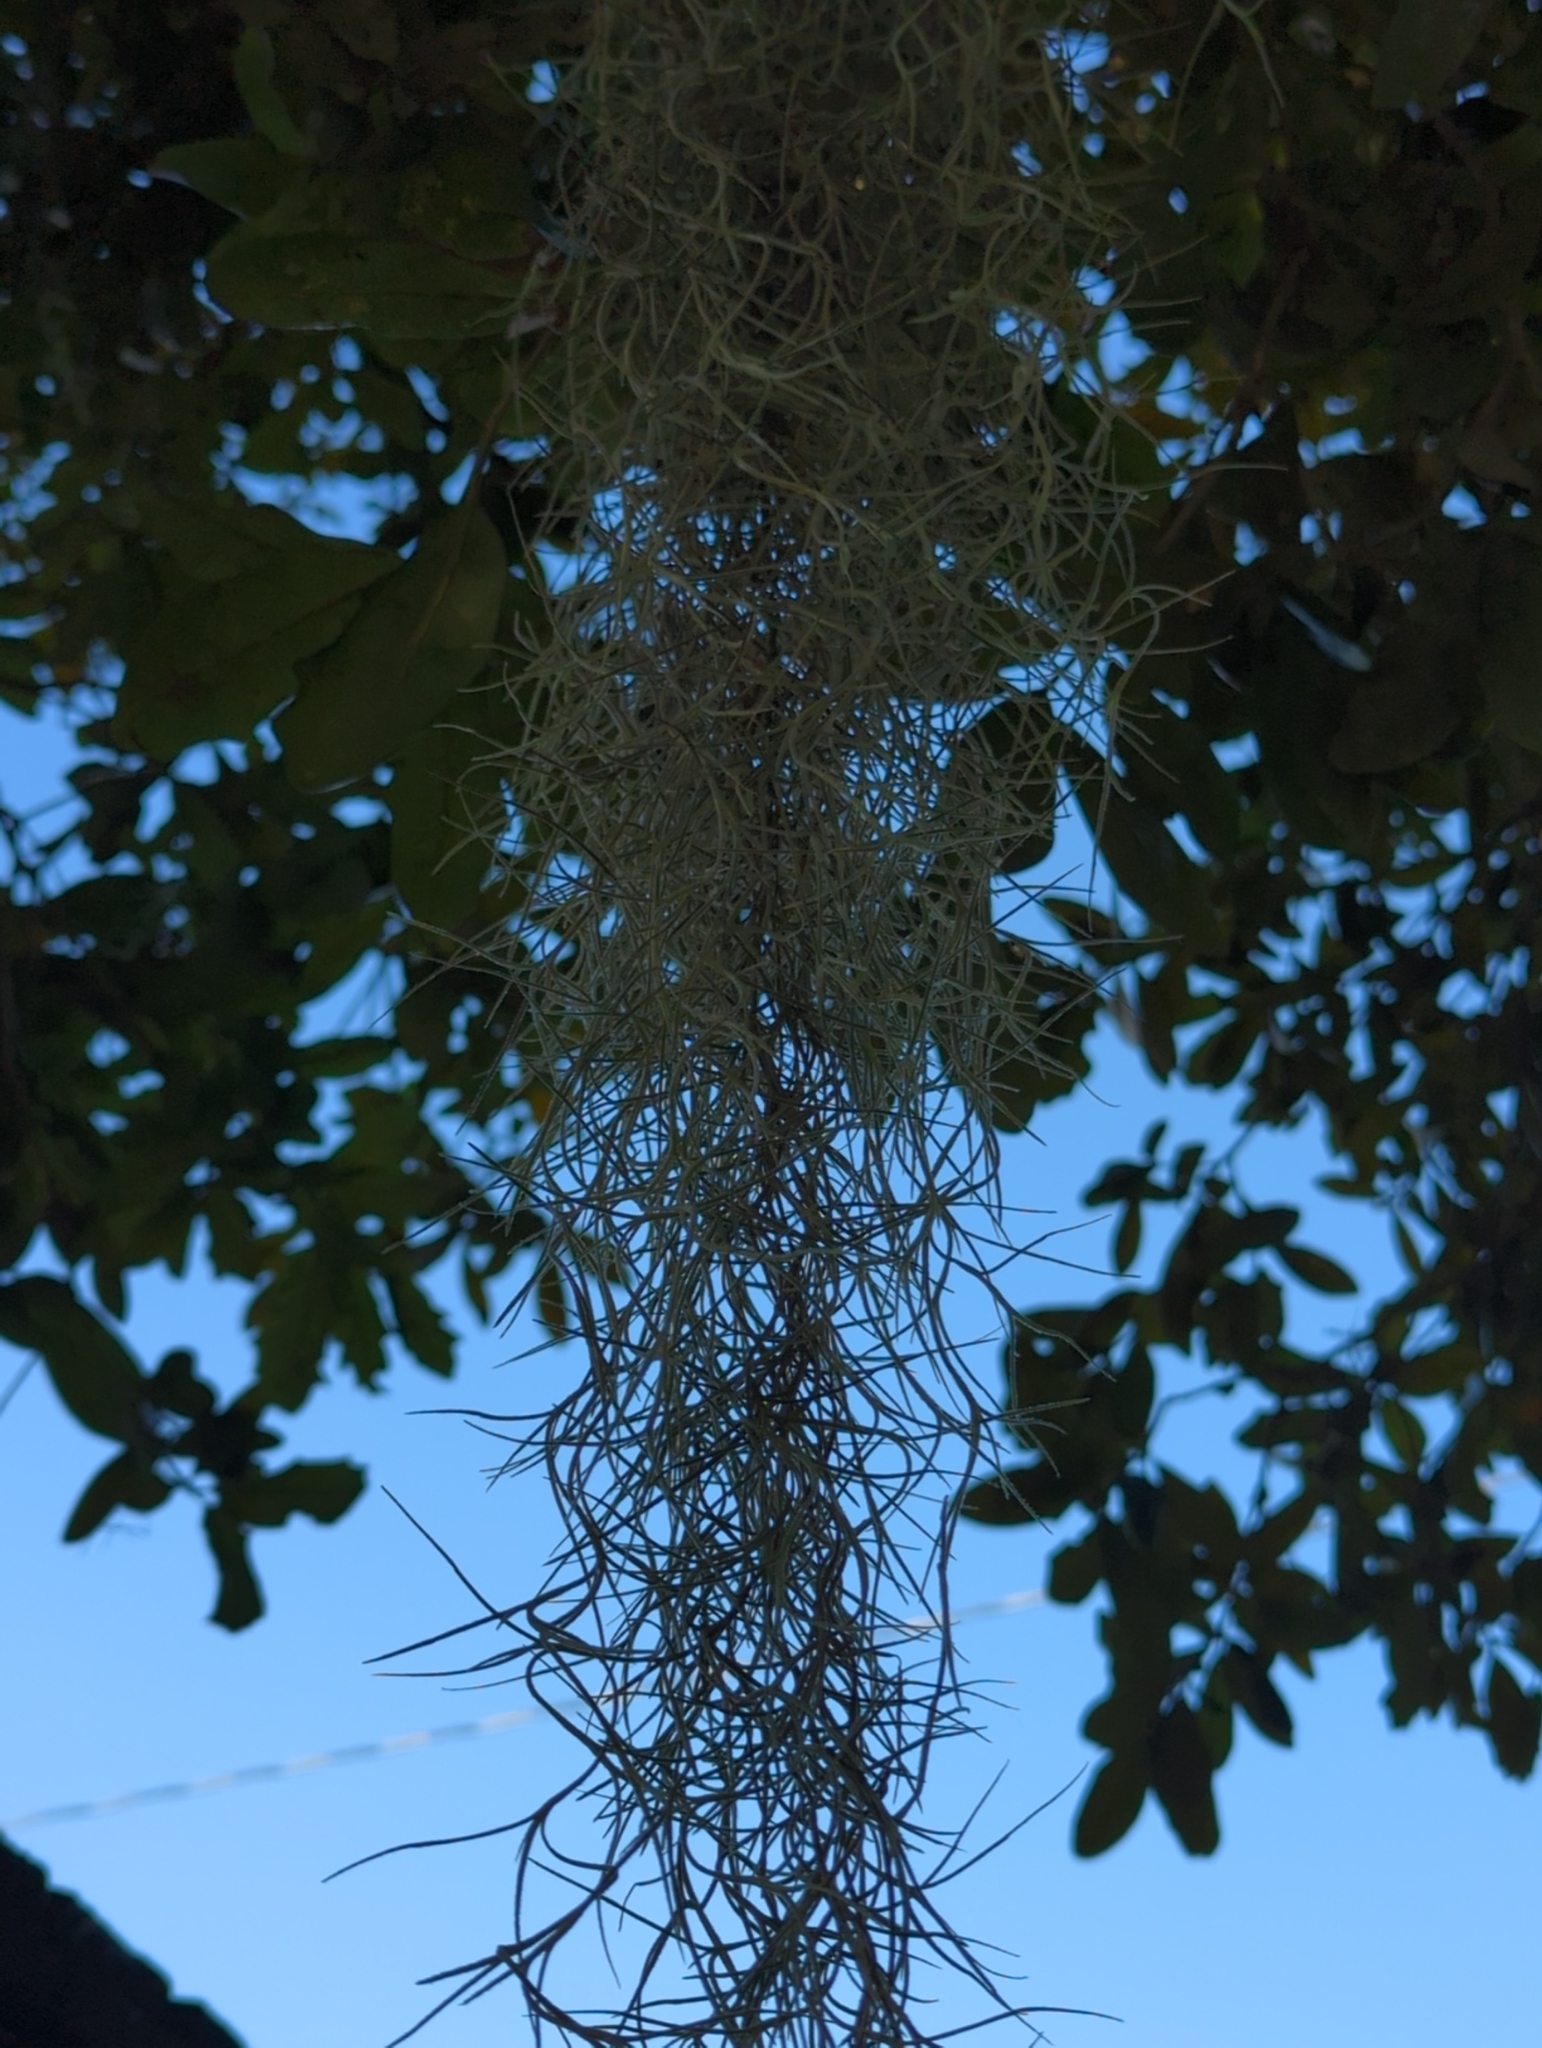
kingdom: Plantae
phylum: Tracheophyta
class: Liliopsida
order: Poales
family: Bromeliaceae
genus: Tillandsia
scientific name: Tillandsia usneoides
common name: Spanish moss
